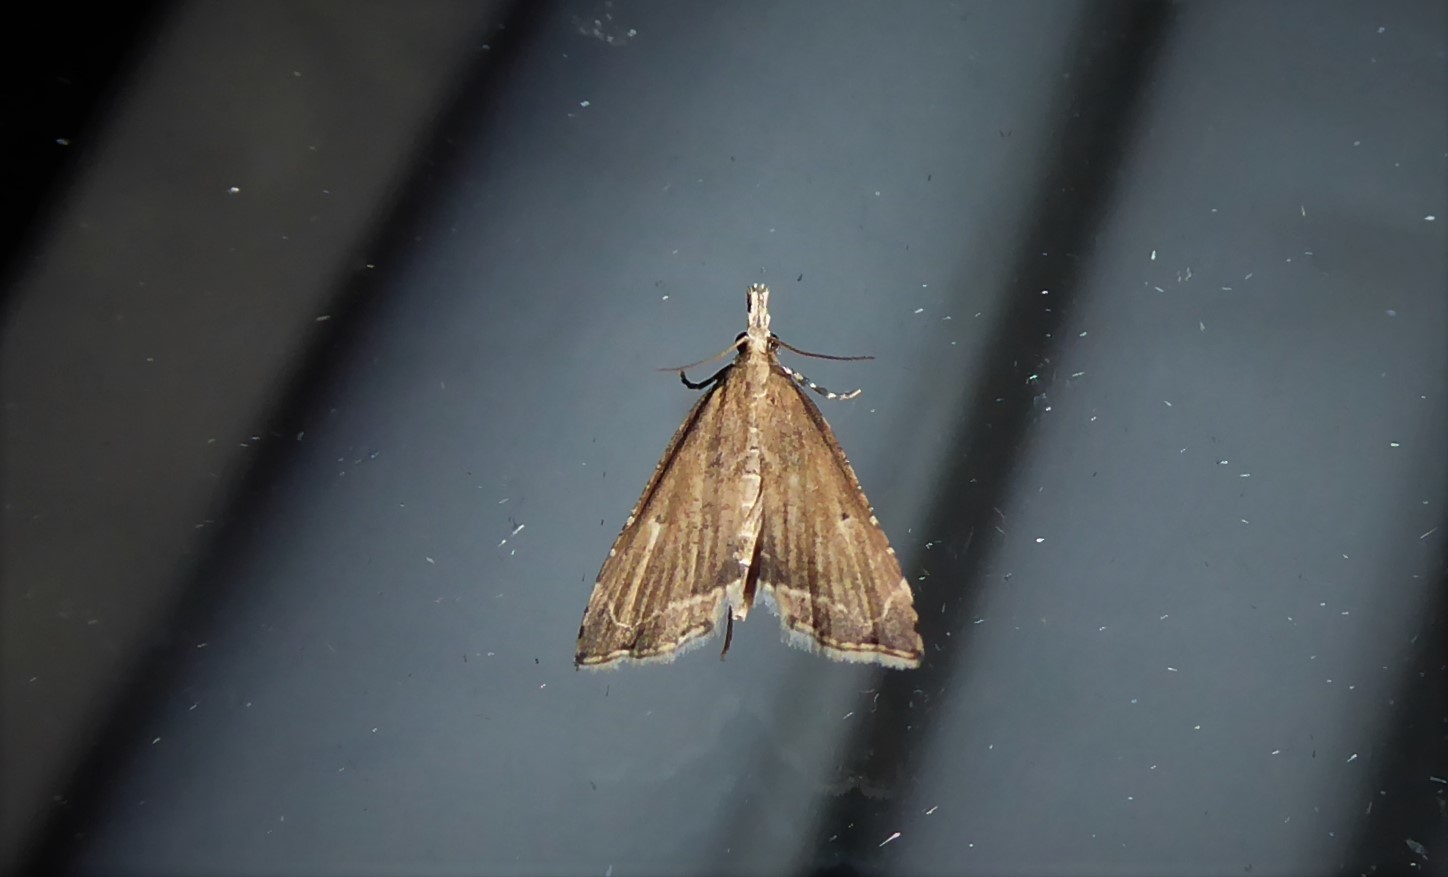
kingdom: Animalia
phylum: Arthropoda
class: Insecta
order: Lepidoptera
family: Crambidae
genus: Diplopseustis
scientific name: Diplopseustis perieresalis
